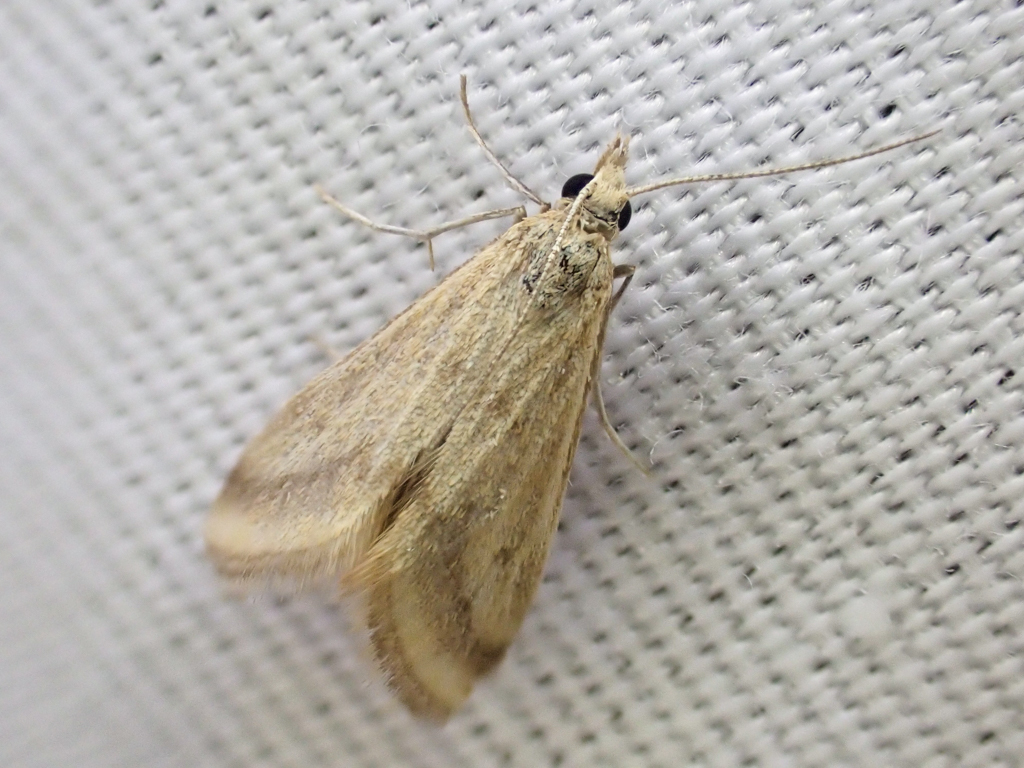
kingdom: Animalia
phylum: Arthropoda
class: Insecta
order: Lepidoptera
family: Crambidae
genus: Microtheoris
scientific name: Microtheoris ophionalis
